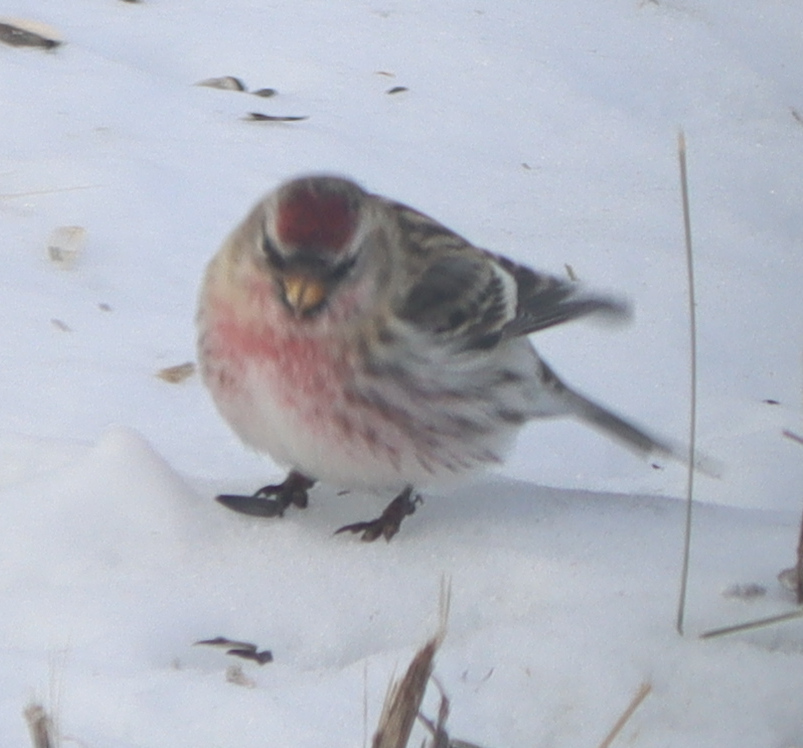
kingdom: Animalia
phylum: Chordata
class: Aves
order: Passeriformes
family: Fringillidae
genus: Acanthis
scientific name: Acanthis flammea
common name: Common redpoll
